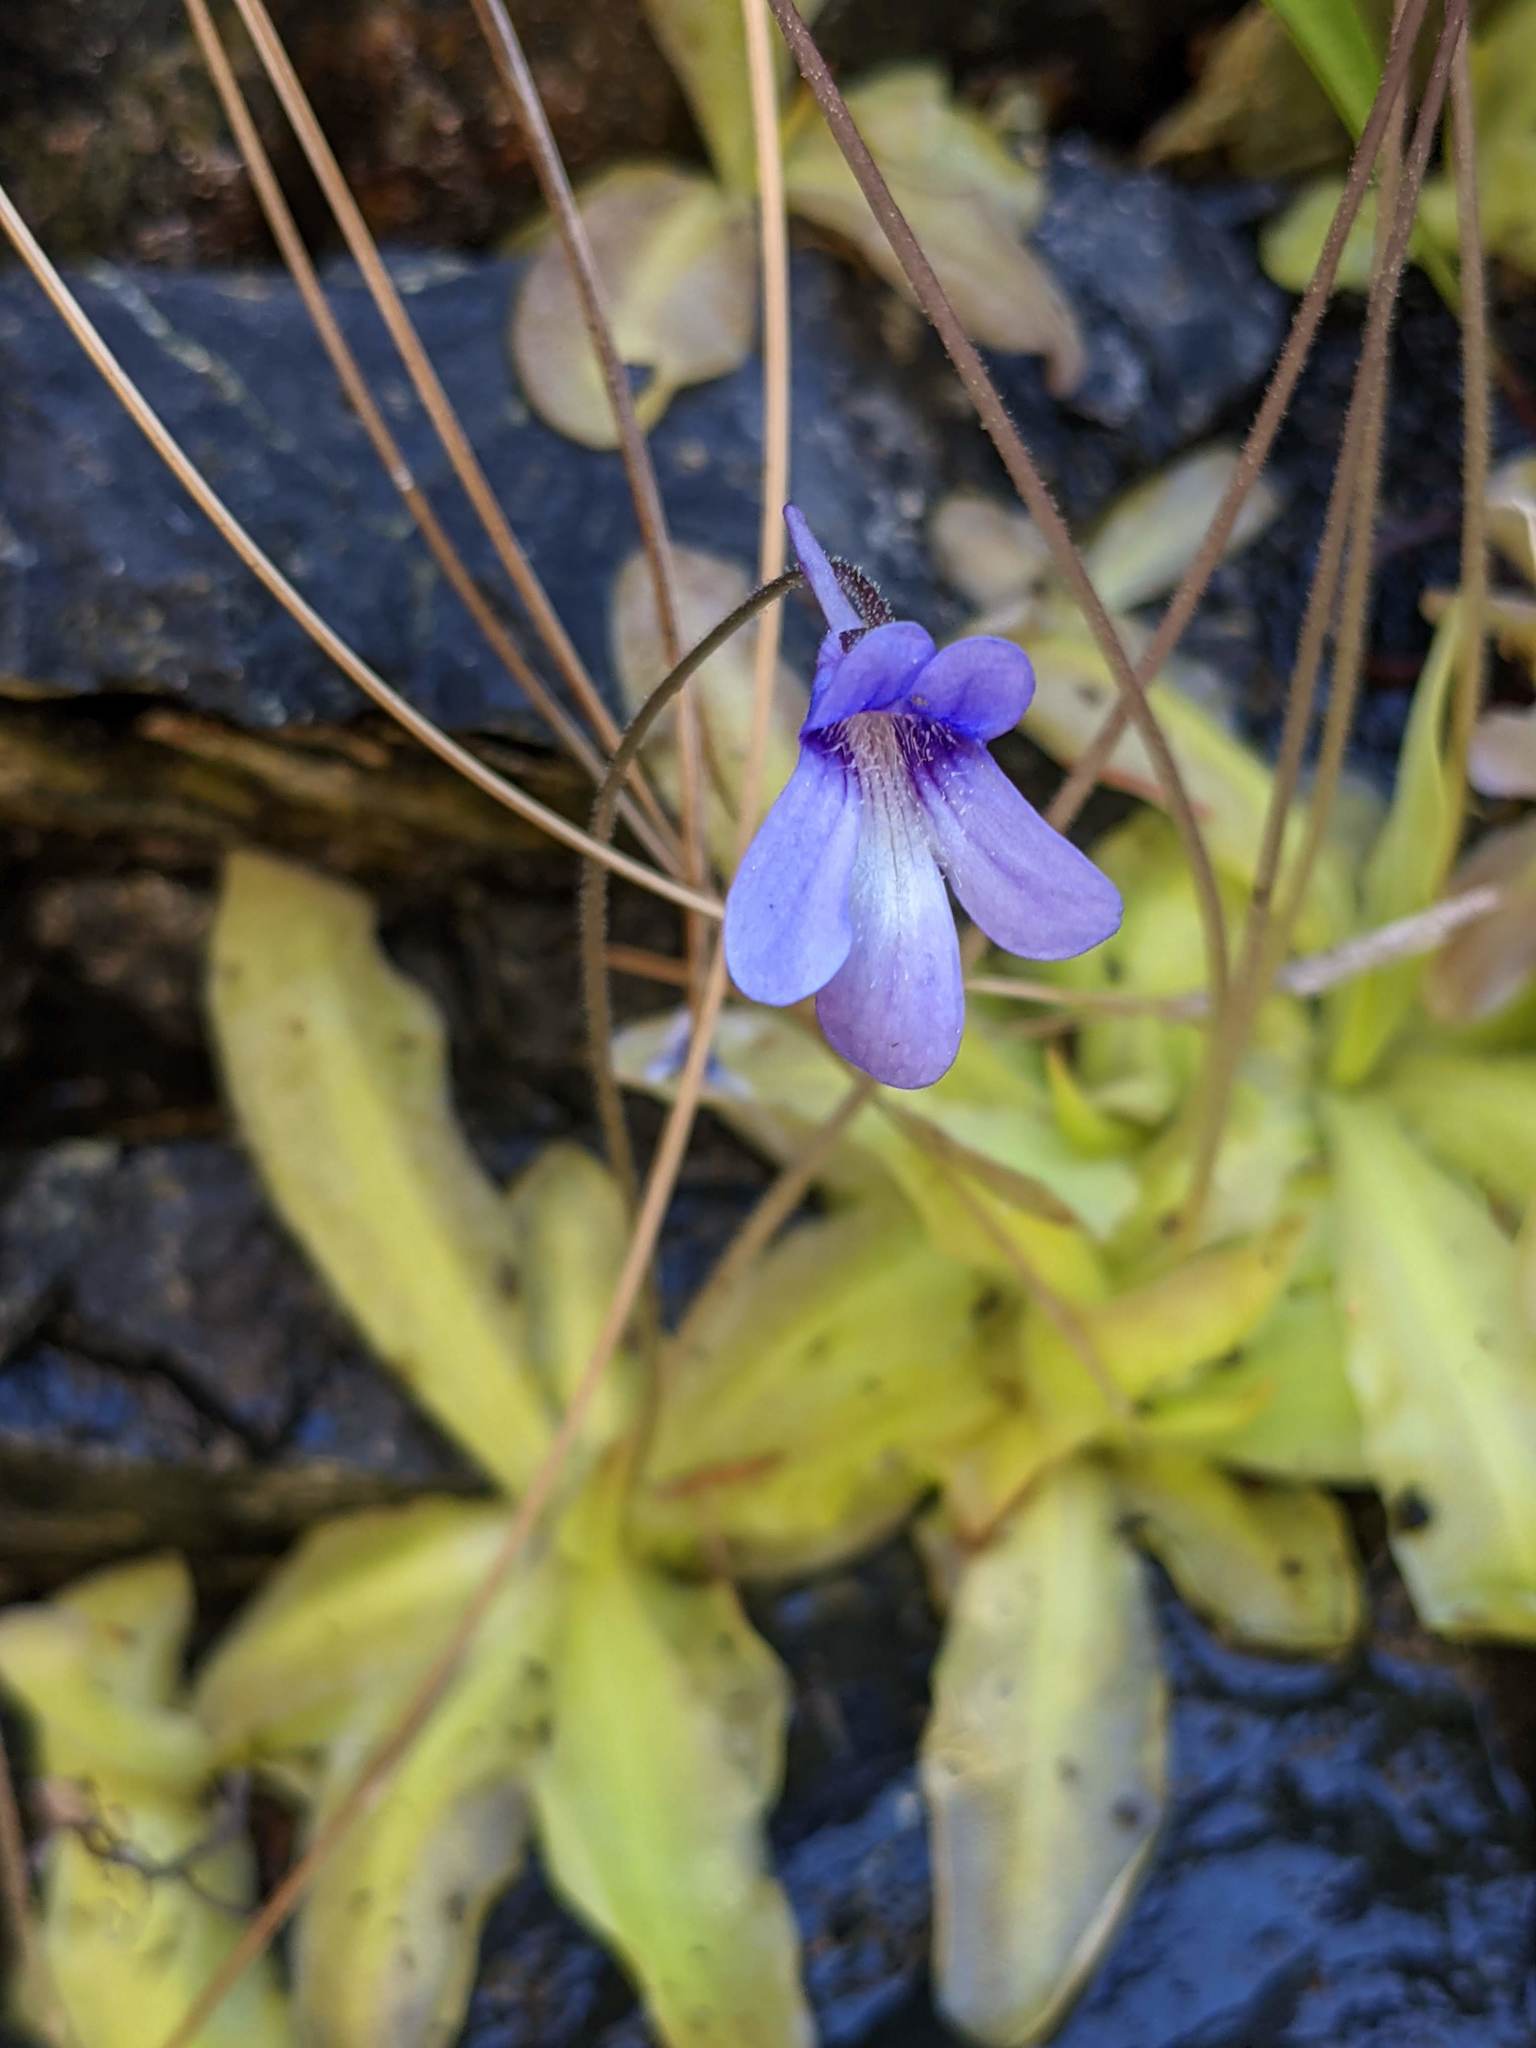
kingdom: Plantae
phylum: Tracheophyta
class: Magnoliopsida
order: Lamiales
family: Lentibulariaceae
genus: Pinguicula
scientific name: Pinguicula macroceras
